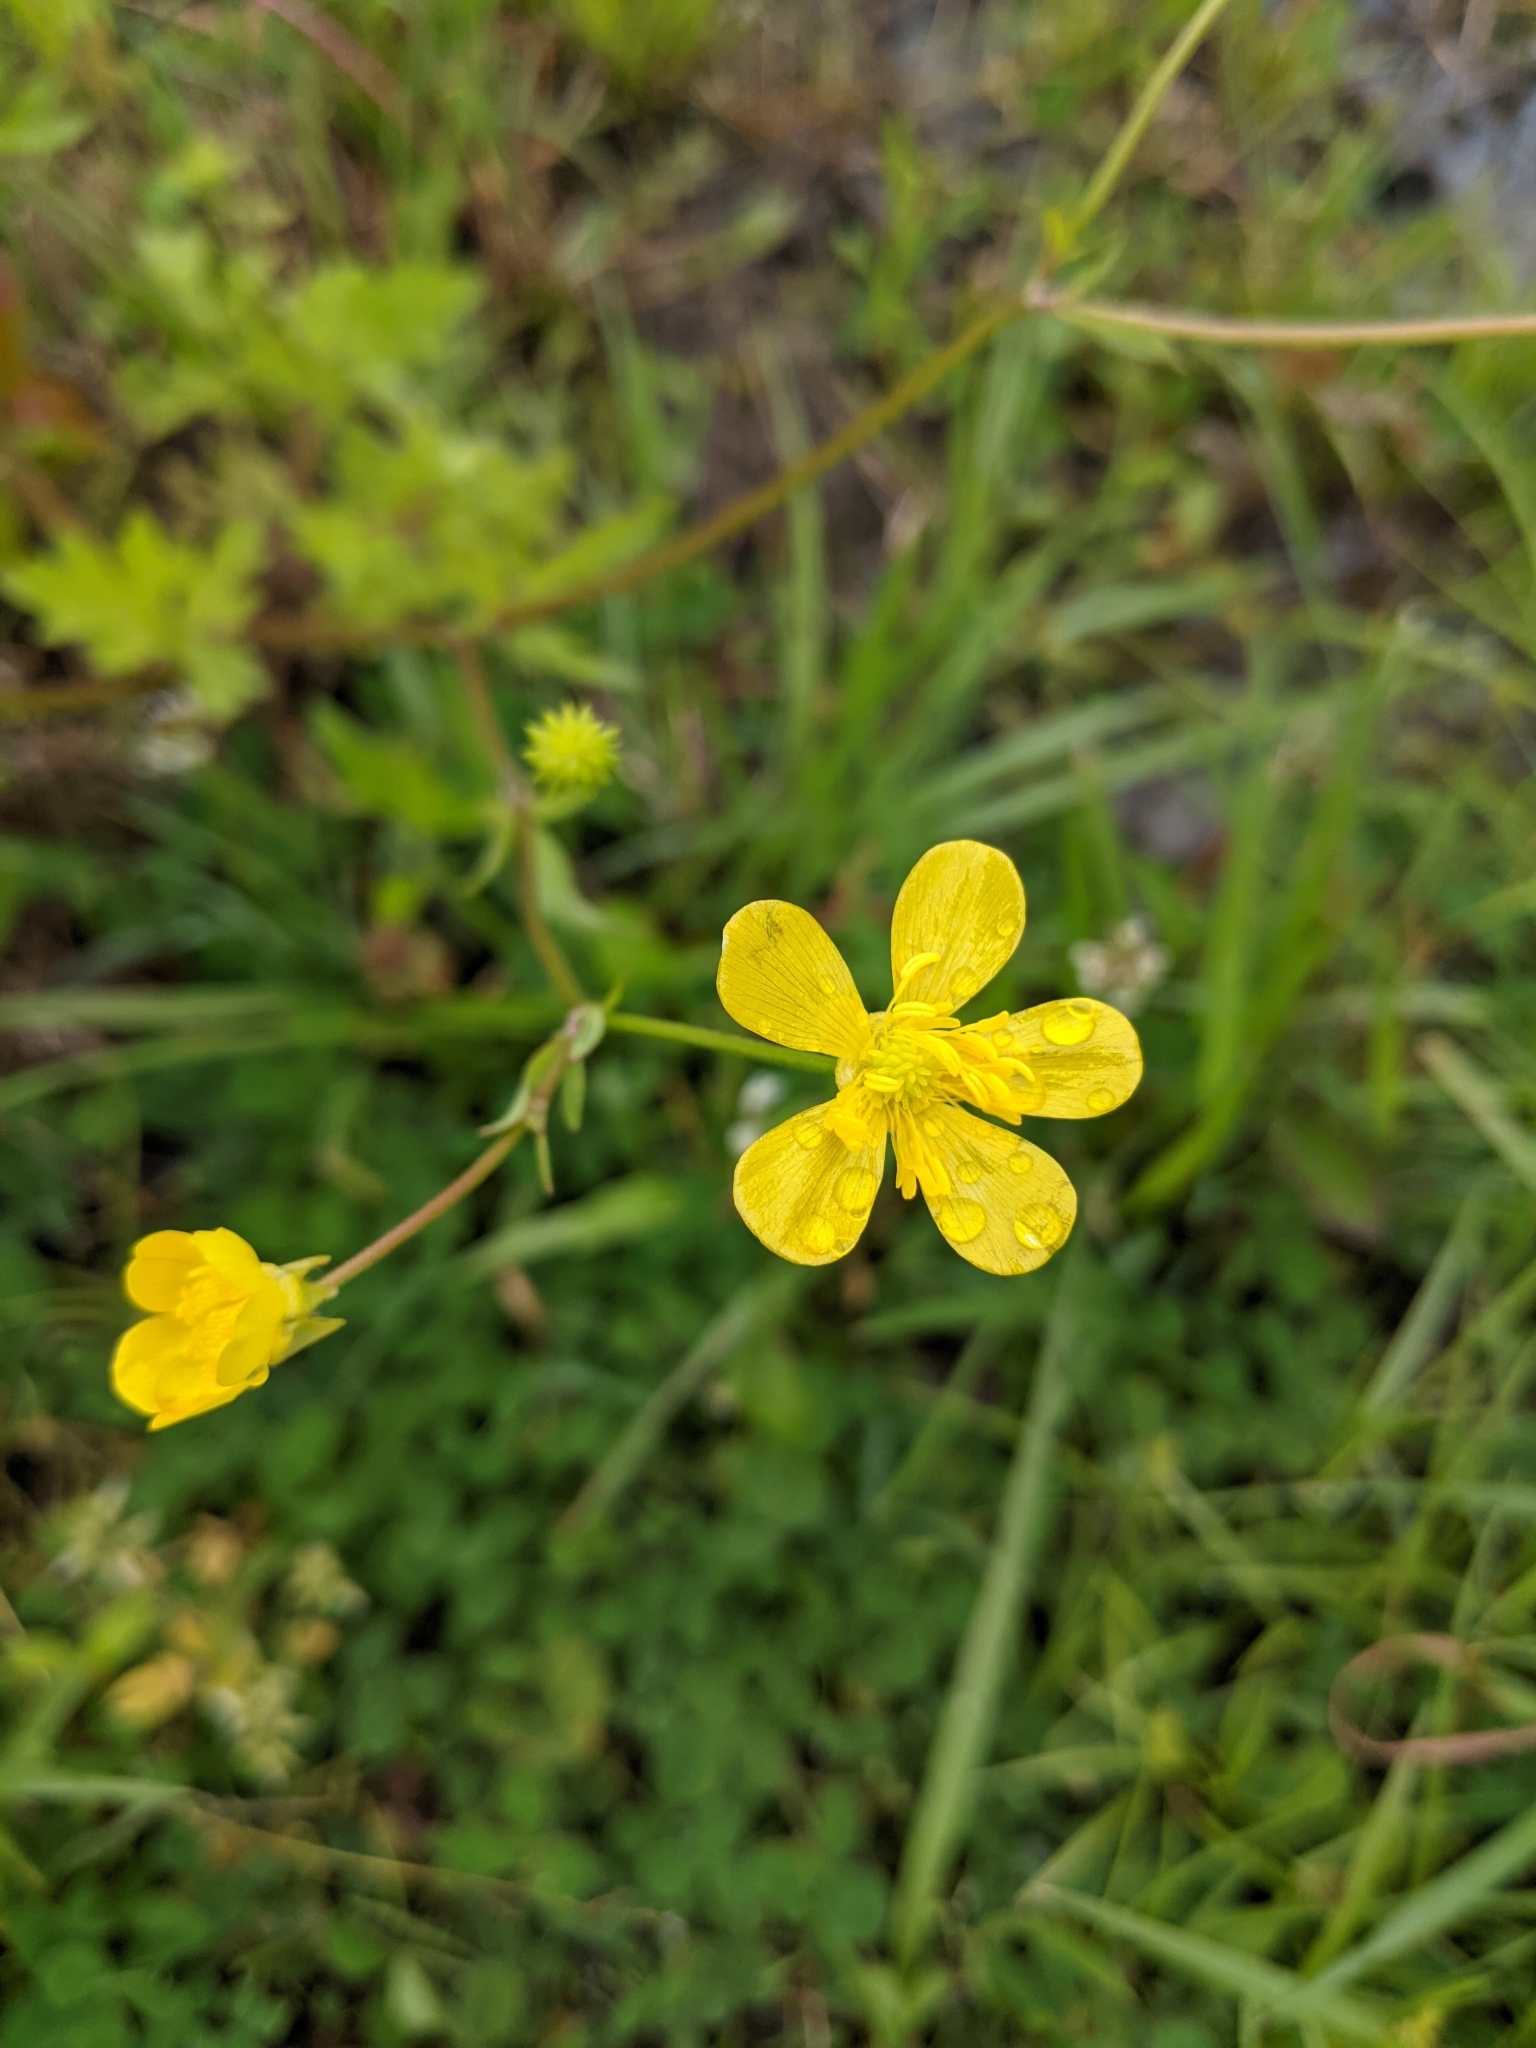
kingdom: Plantae
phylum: Tracheophyta
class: Magnoliopsida
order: Ranunculales
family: Ranunculaceae
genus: Ranunculus
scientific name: Ranunculus sardous
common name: Hairy buttercup
